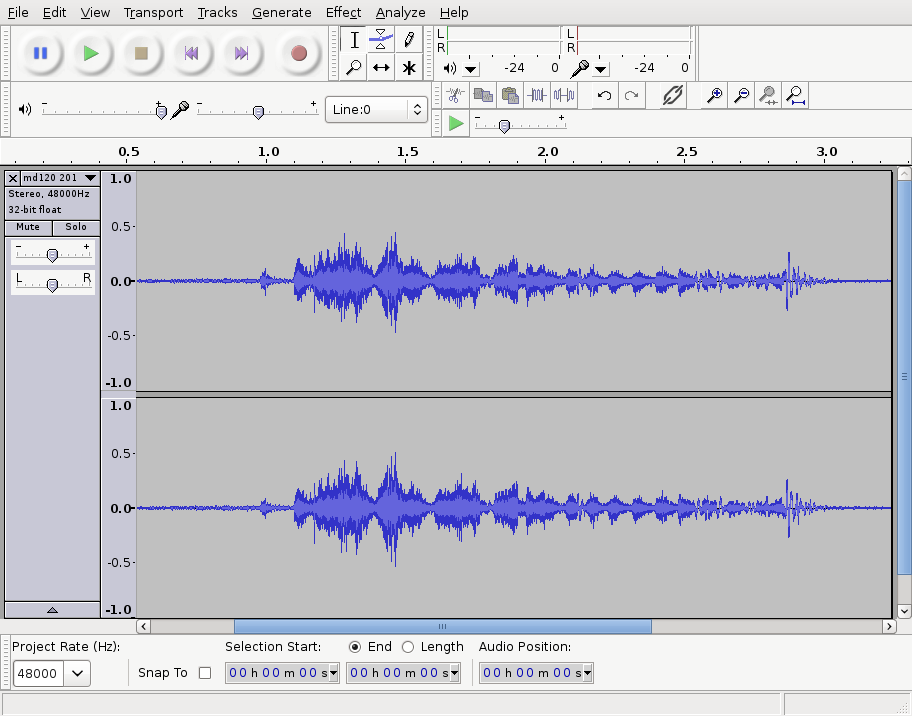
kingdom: Animalia
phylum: Chordata
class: Aves
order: Passeriformes
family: Turdidae
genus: Turdus
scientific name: Turdus merula
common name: Common blackbird
